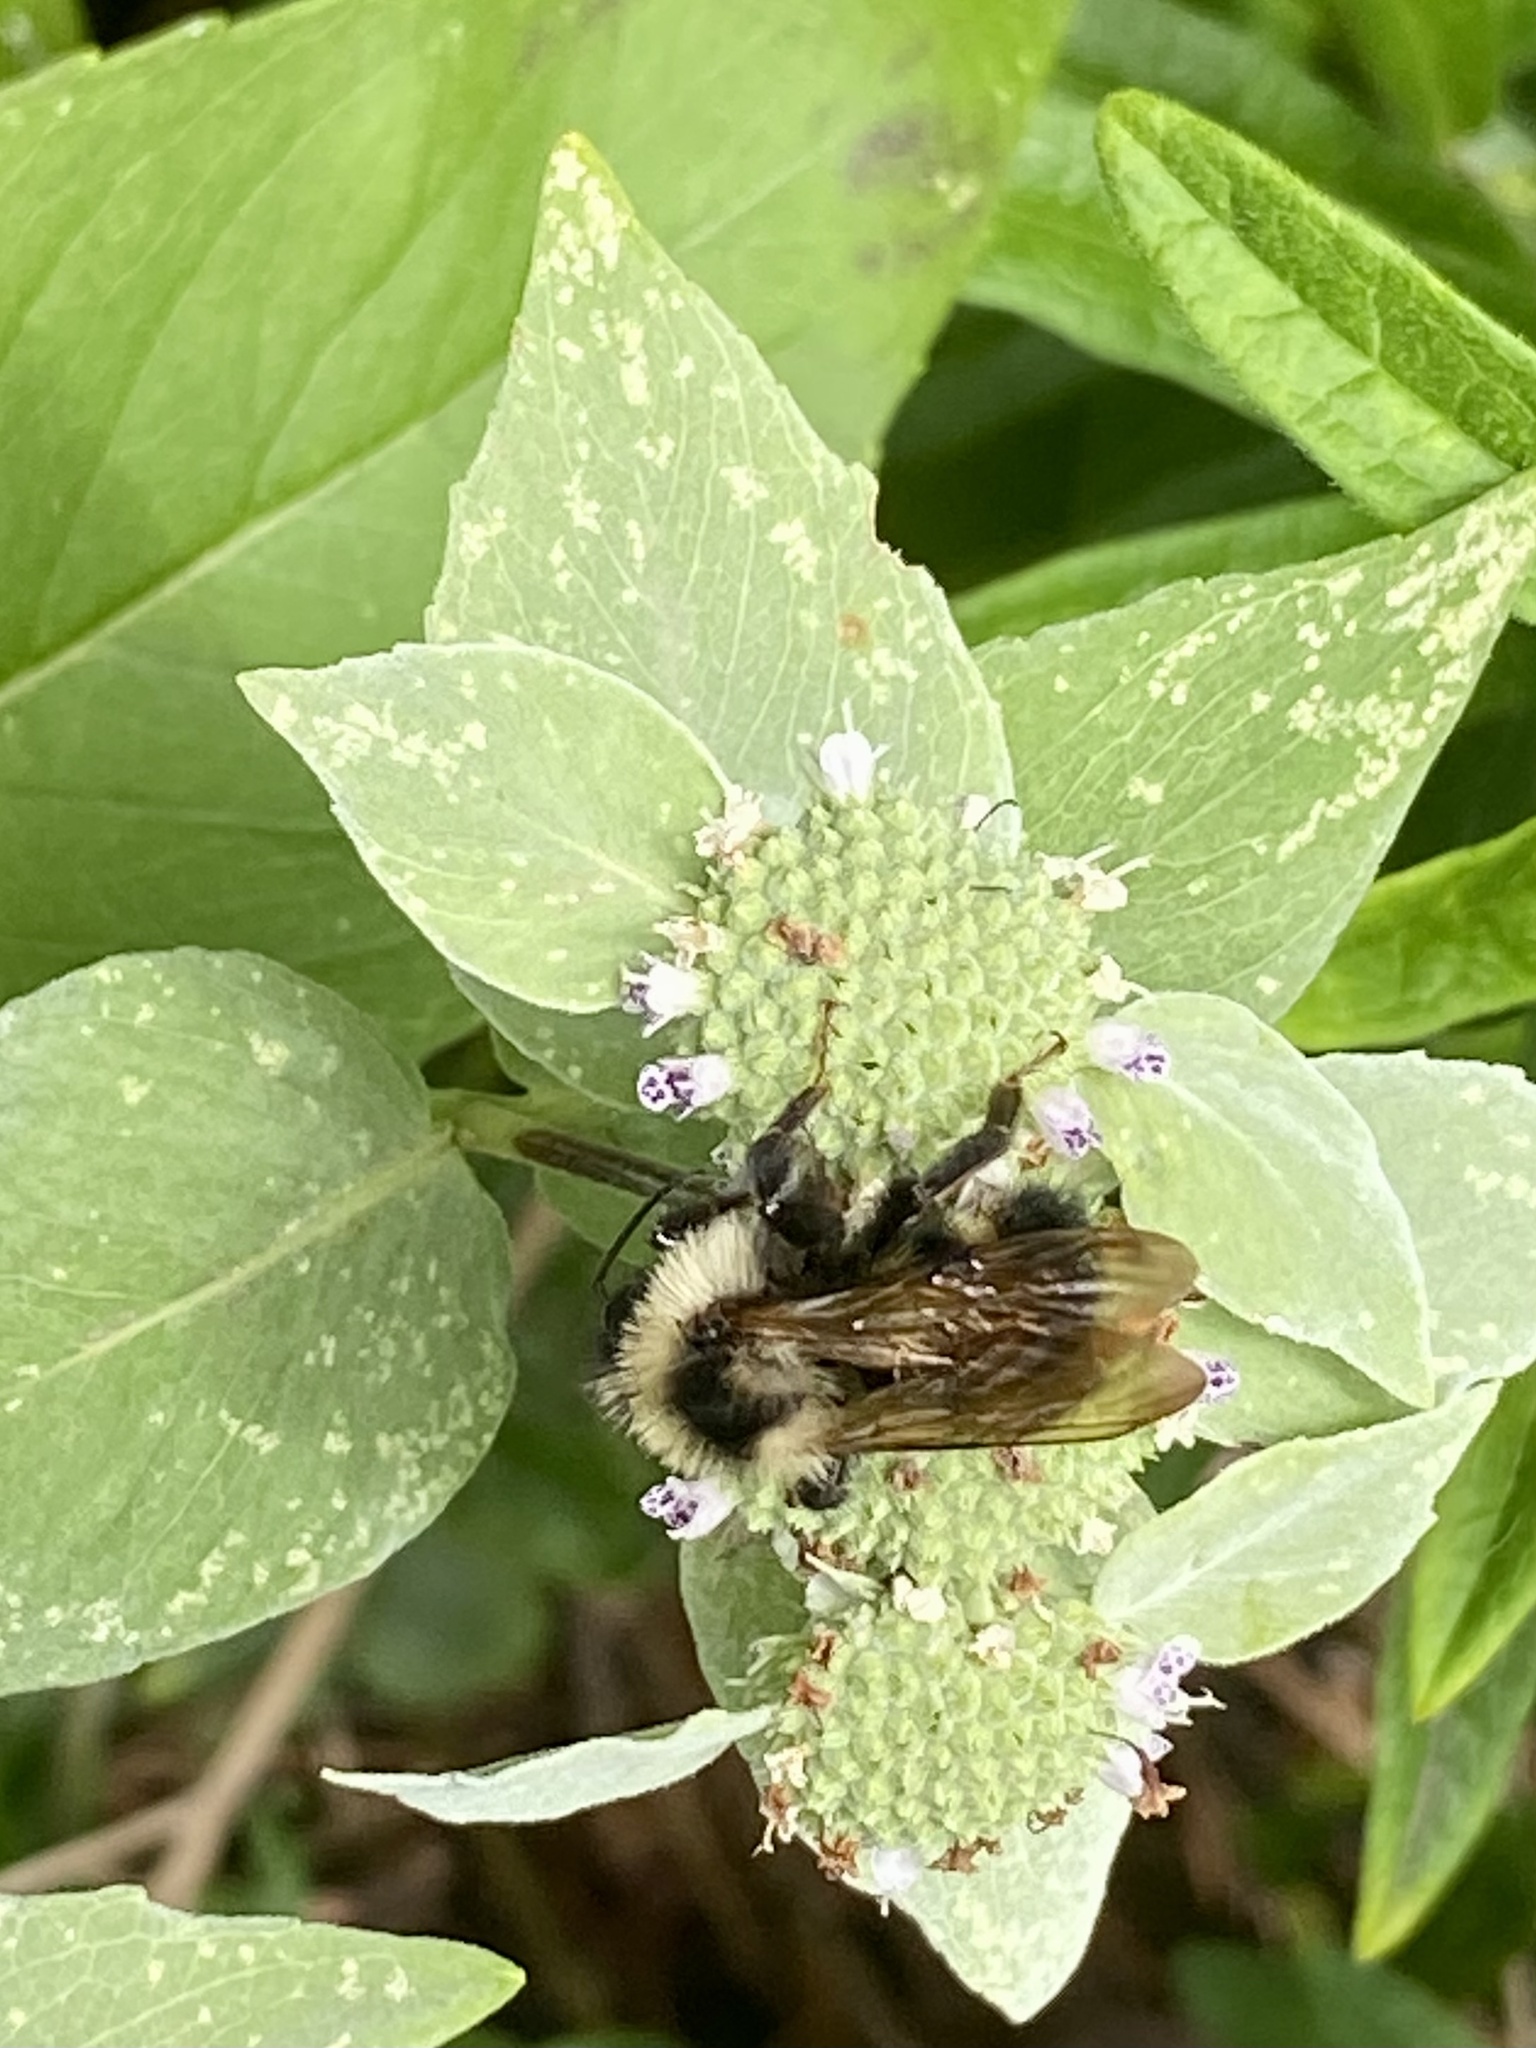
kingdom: Animalia
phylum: Arthropoda
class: Insecta
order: Hymenoptera
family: Apidae
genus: Bombus
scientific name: Bombus citrinus
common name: Lemon cuckoo bumble bee
